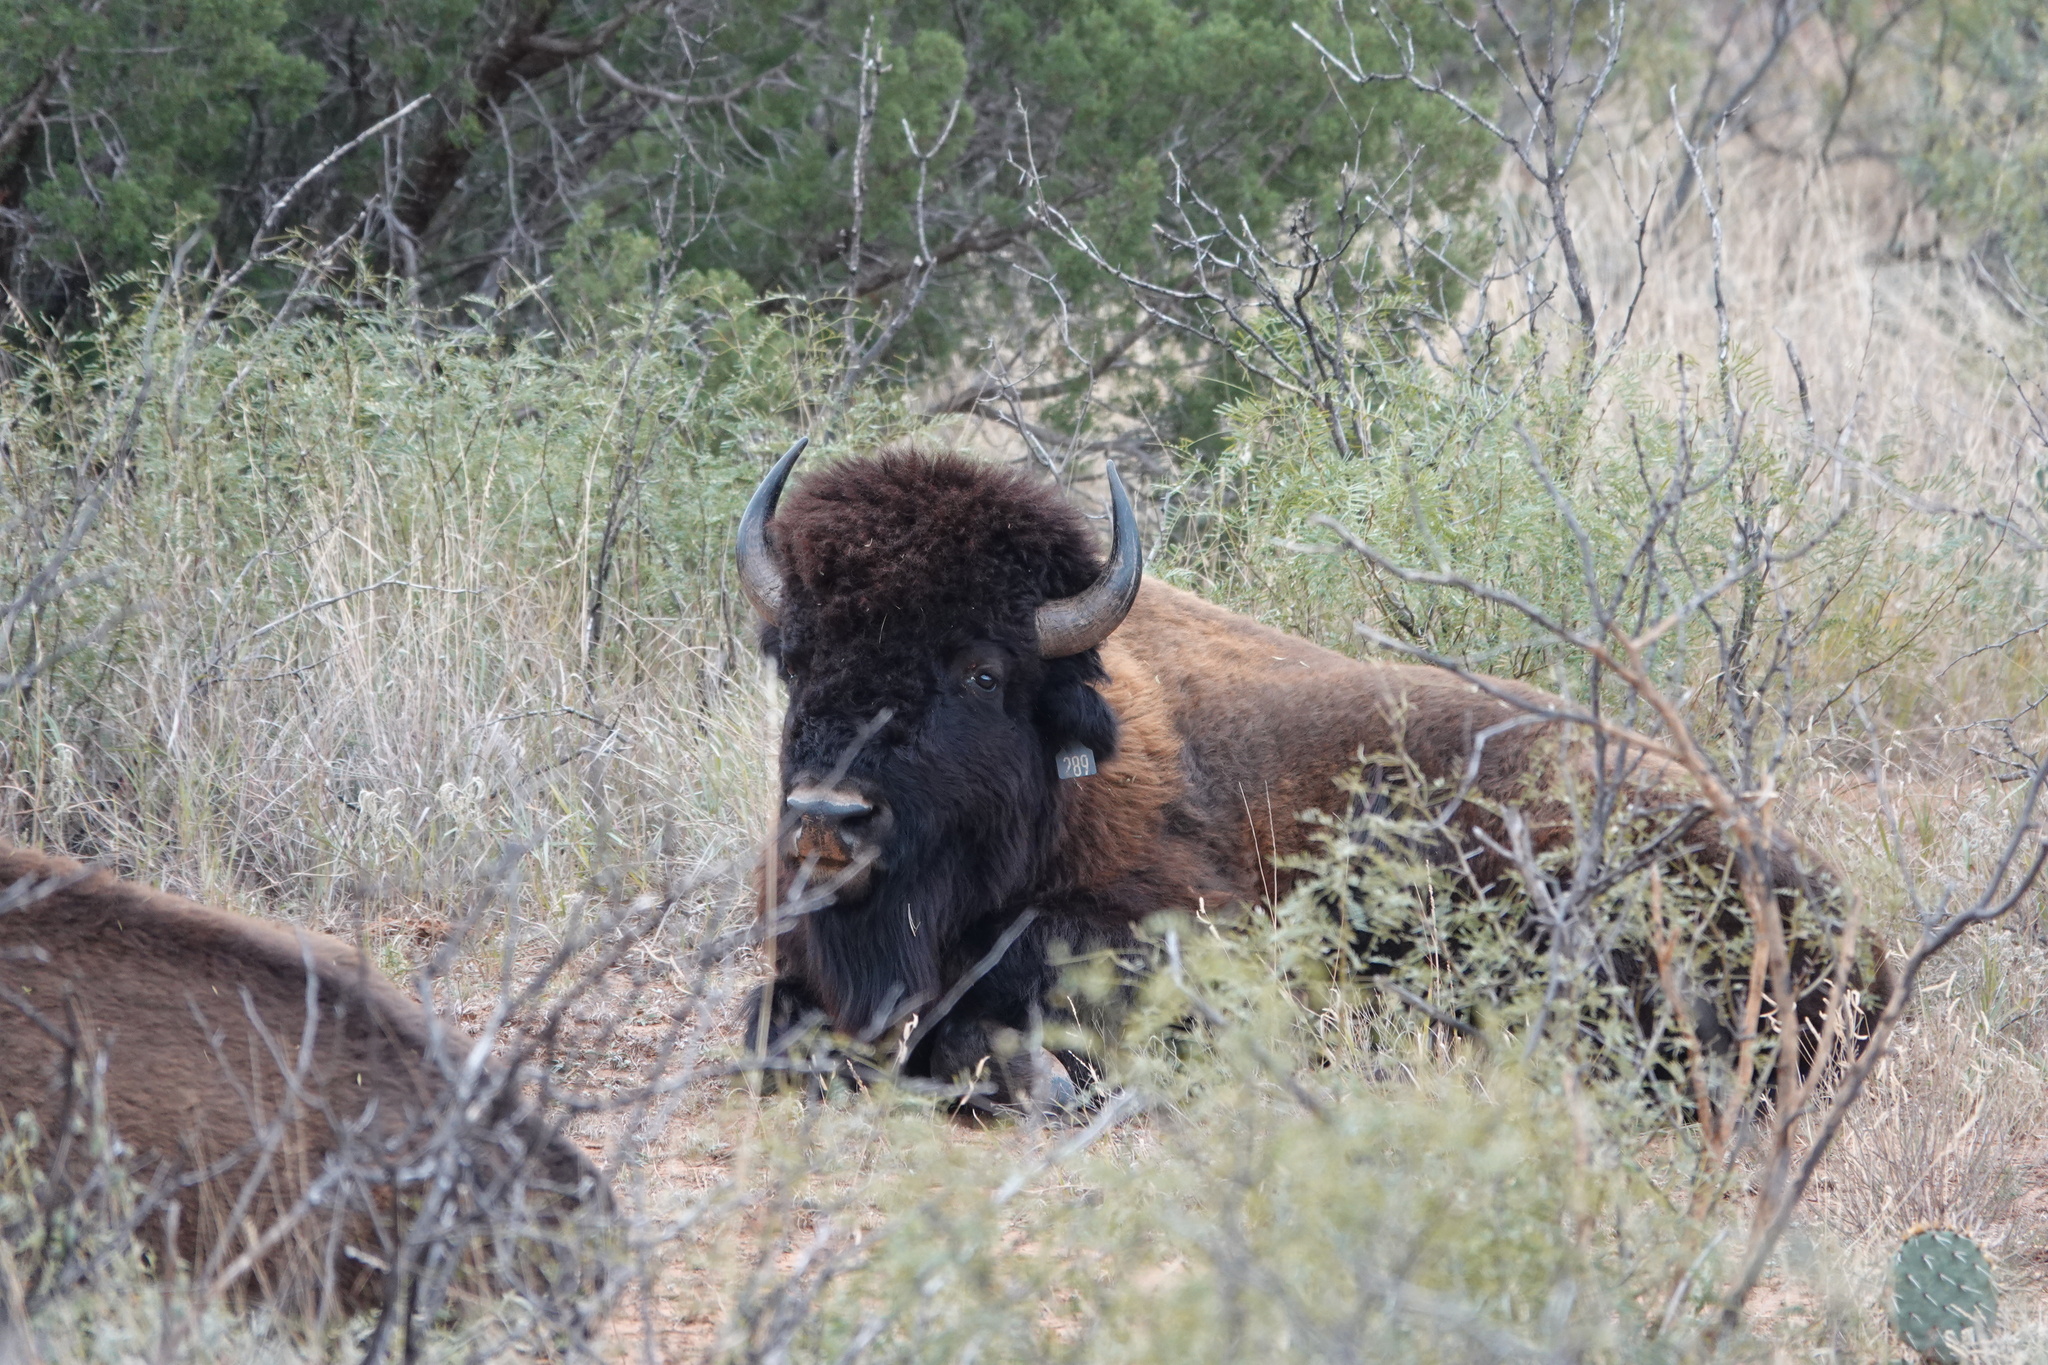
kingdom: Animalia
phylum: Chordata
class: Mammalia
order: Artiodactyla
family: Bovidae
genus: Bison
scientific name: Bison bison
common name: American bison
